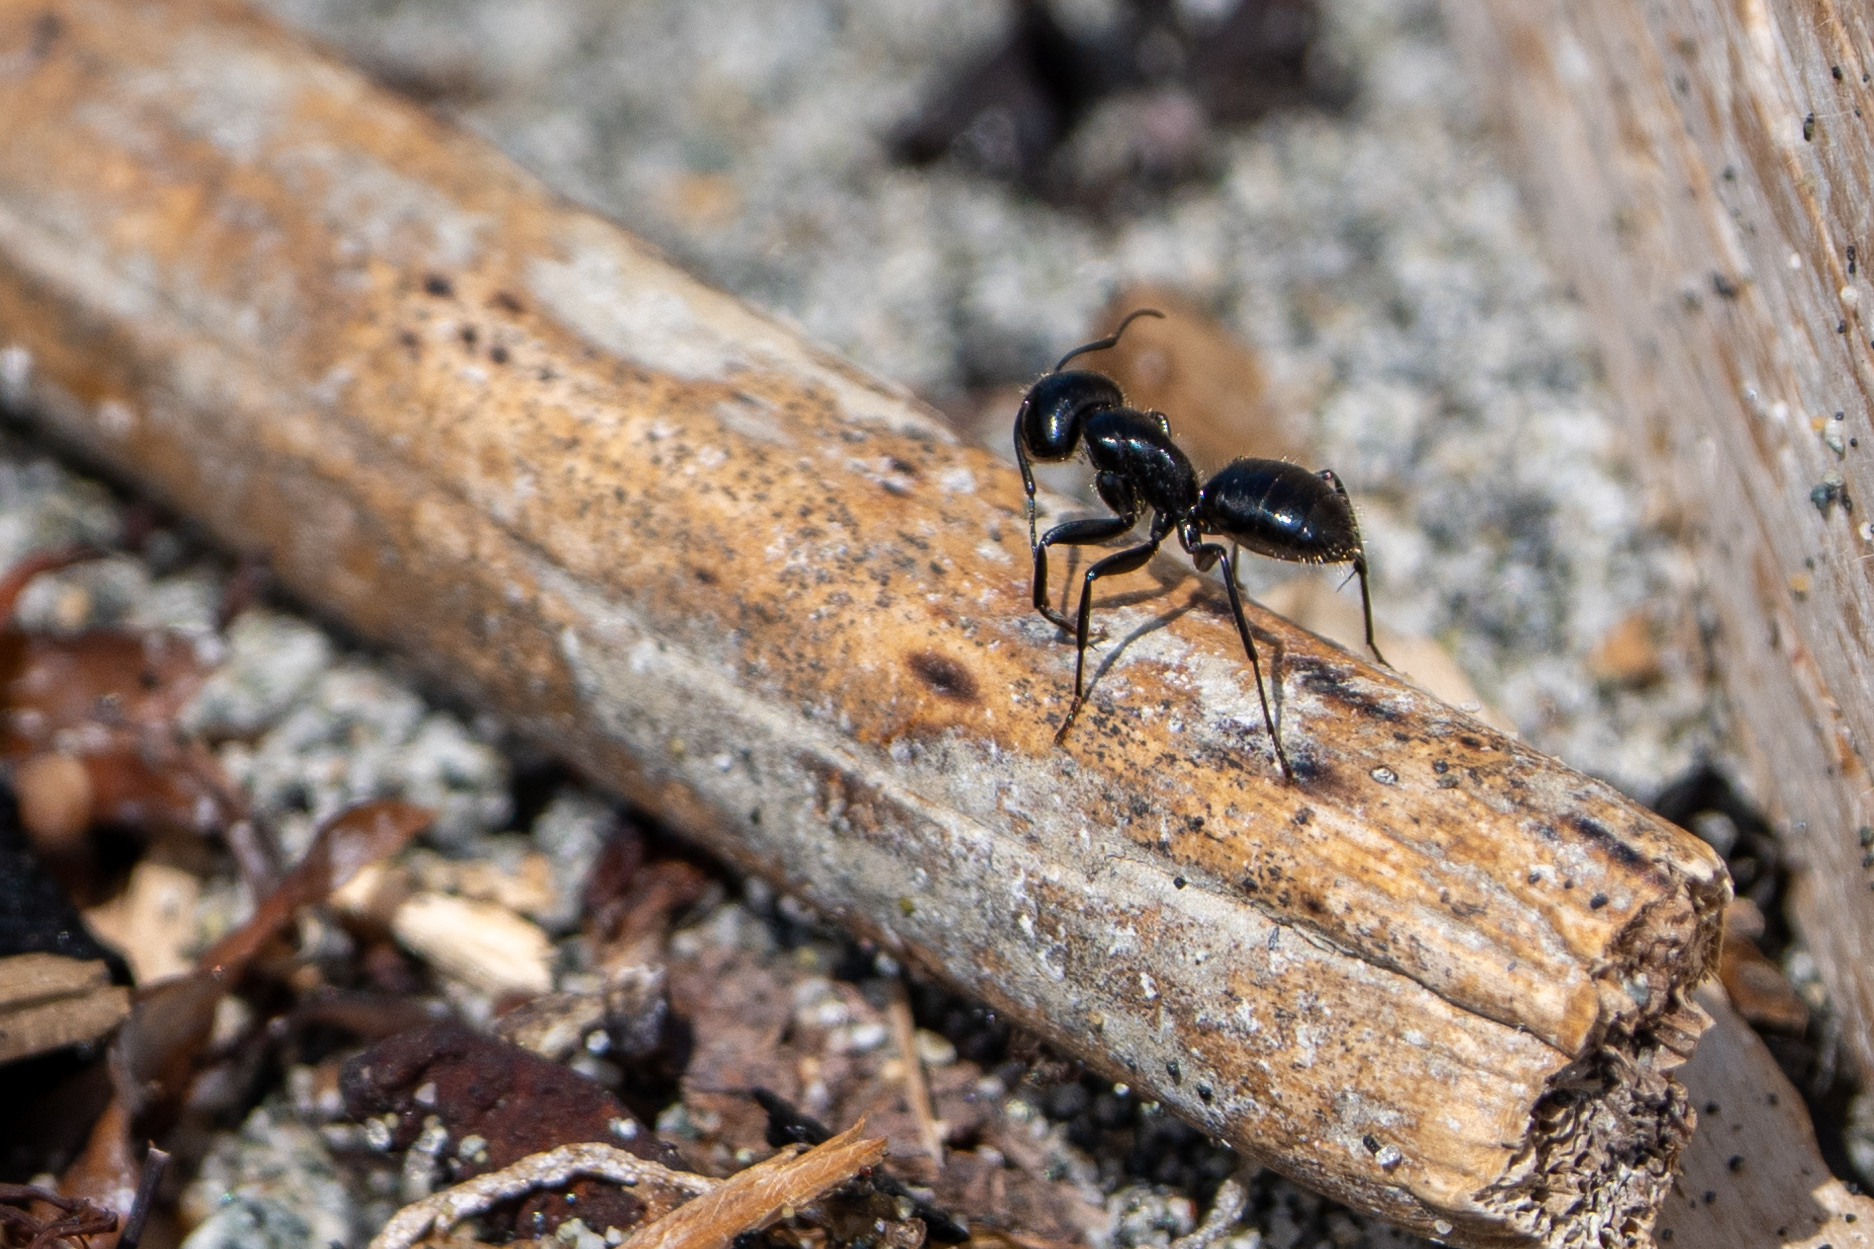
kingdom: Animalia
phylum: Arthropoda
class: Insecta
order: Hymenoptera
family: Formicidae
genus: Camponotus
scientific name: Camponotus
